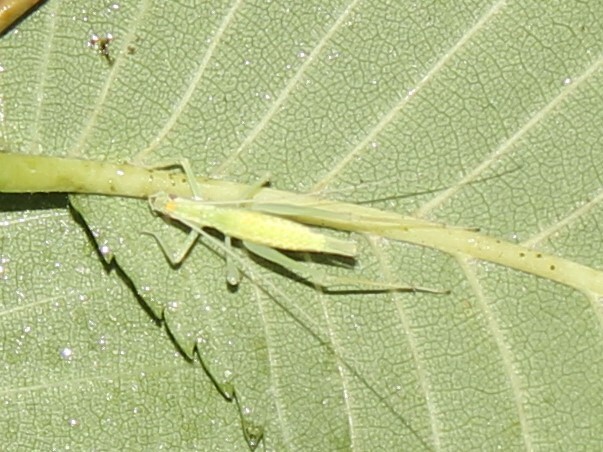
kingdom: Animalia
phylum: Arthropoda
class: Insecta
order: Orthoptera
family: Gryllidae
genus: Oecanthus
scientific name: Oecanthus
